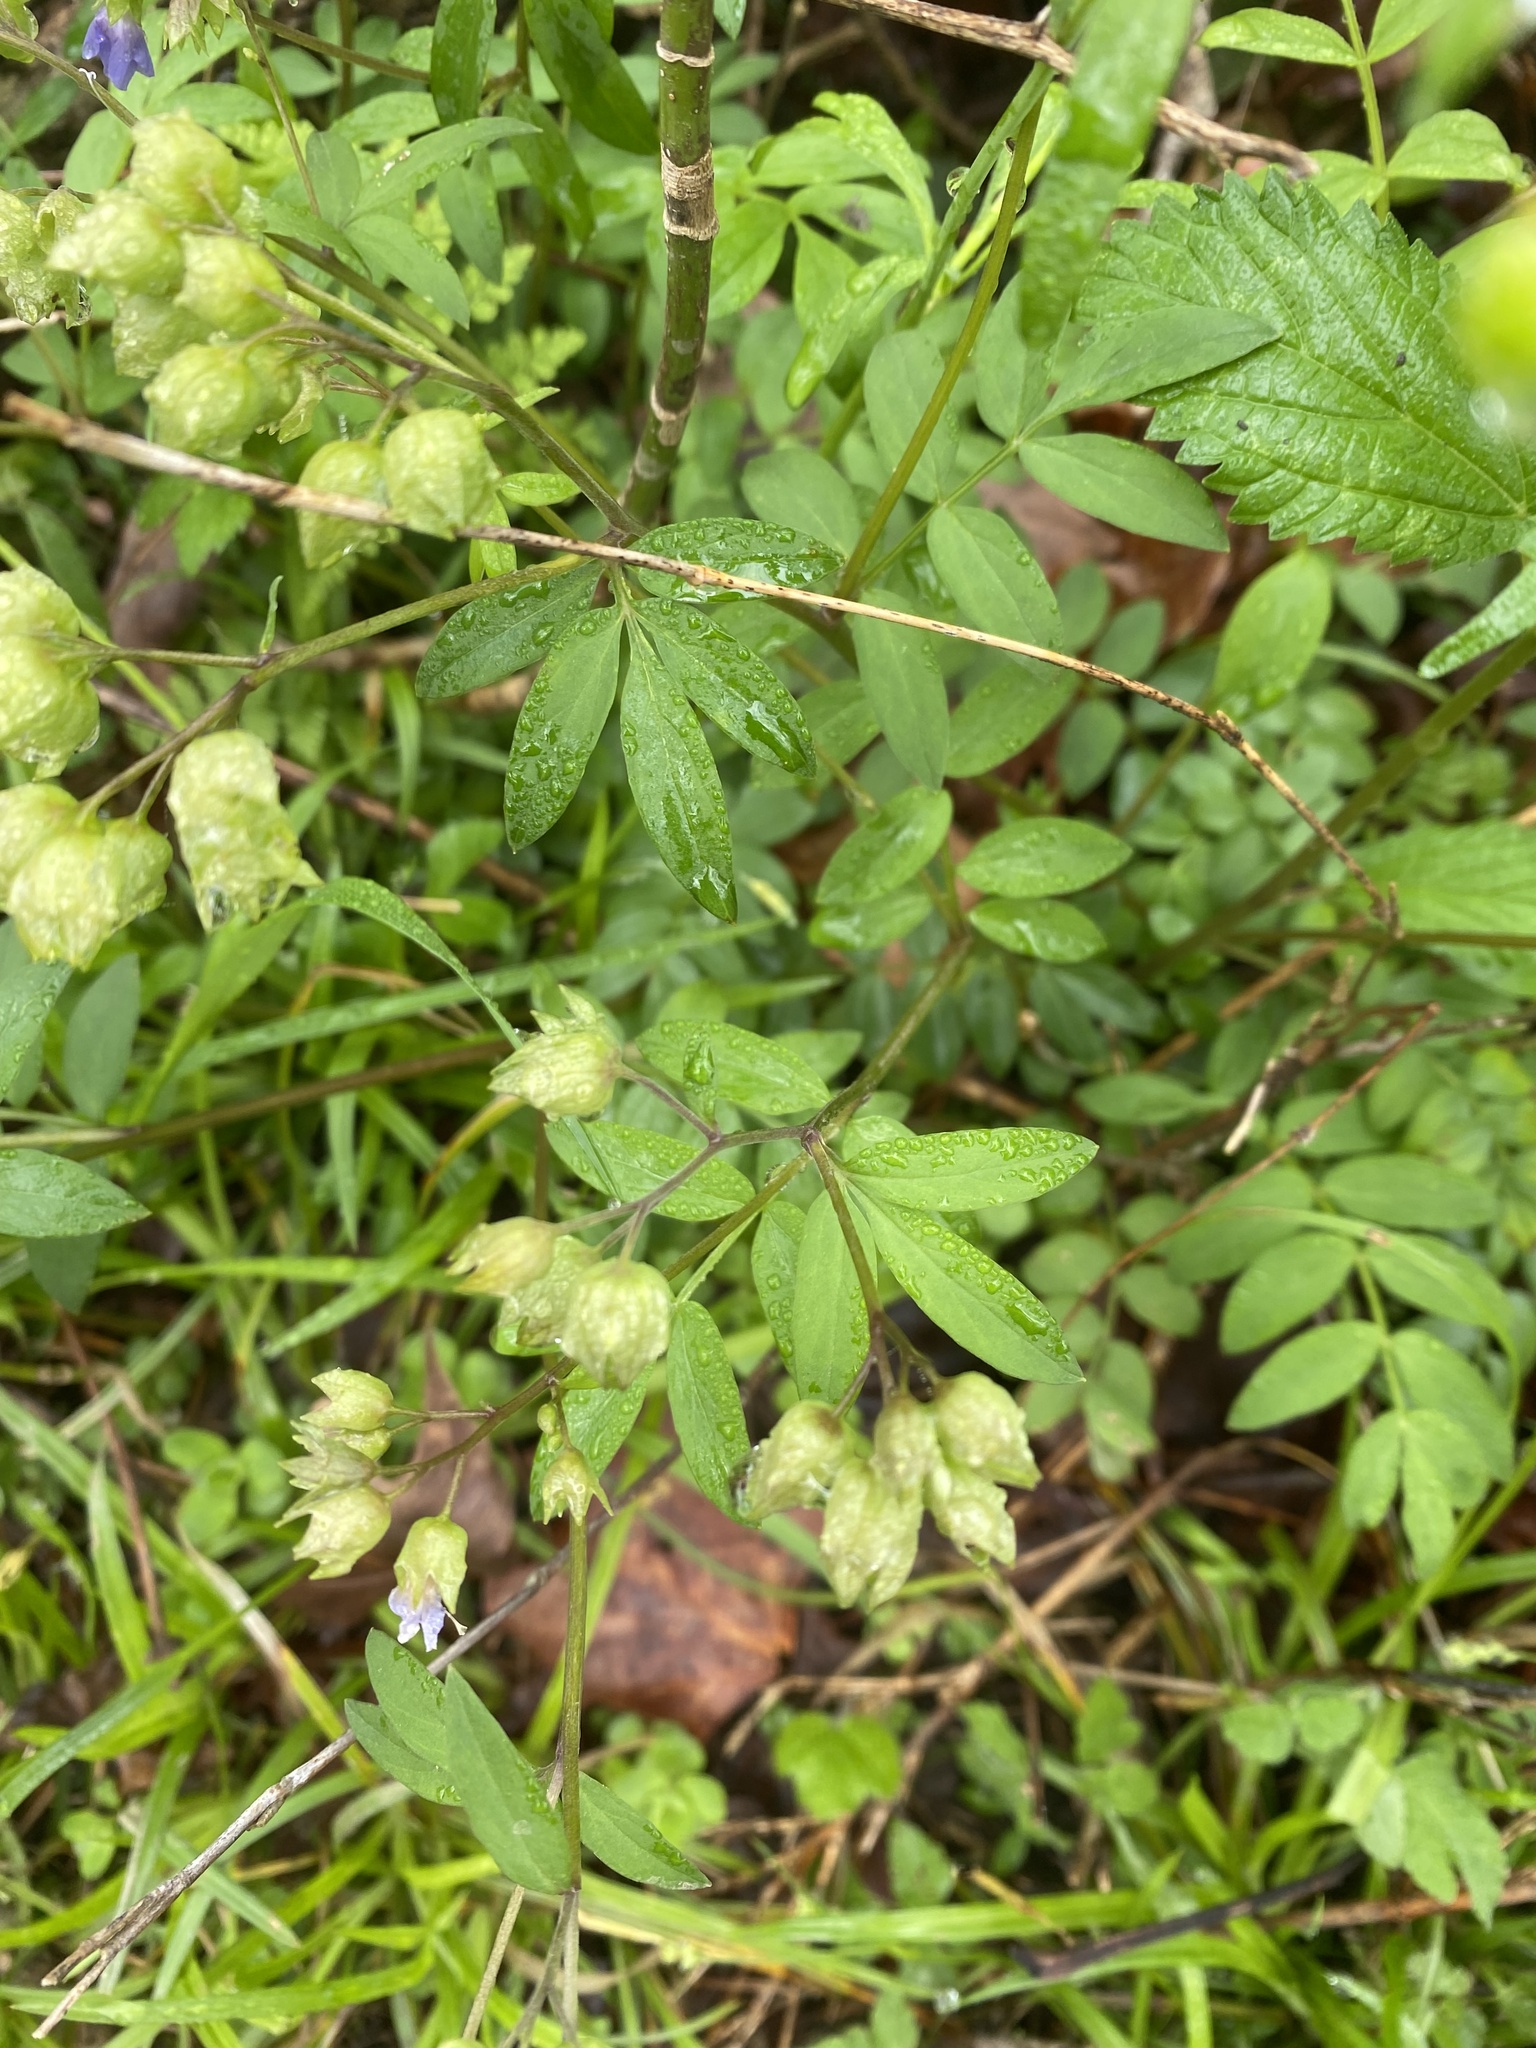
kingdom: Plantae
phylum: Tracheophyta
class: Magnoliopsida
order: Ericales
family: Polemoniaceae
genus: Polemonium
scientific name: Polemonium reptans
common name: Creeping jacob's-ladder
